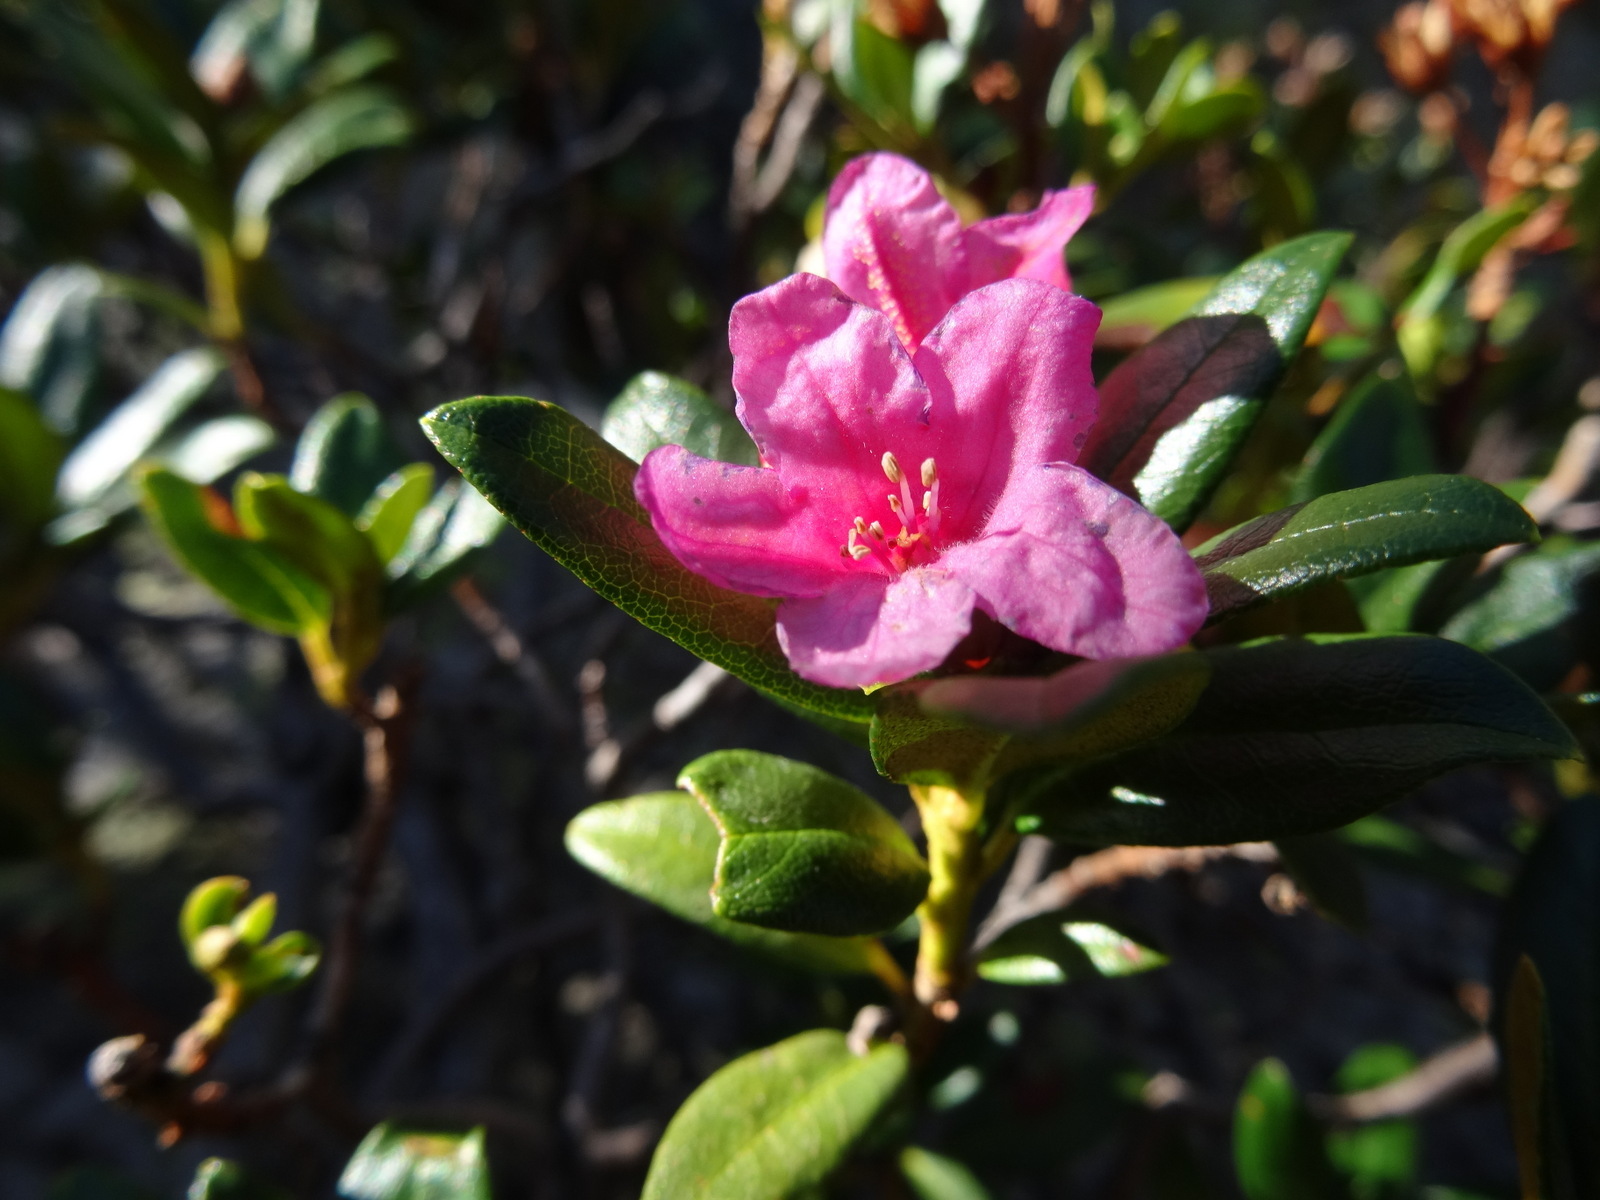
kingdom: Plantae
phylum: Tracheophyta
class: Magnoliopsida
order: Ericales
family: Ericaceae
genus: Rhododendron
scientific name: Rhododendron ferrugineum
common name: Alpenrose
